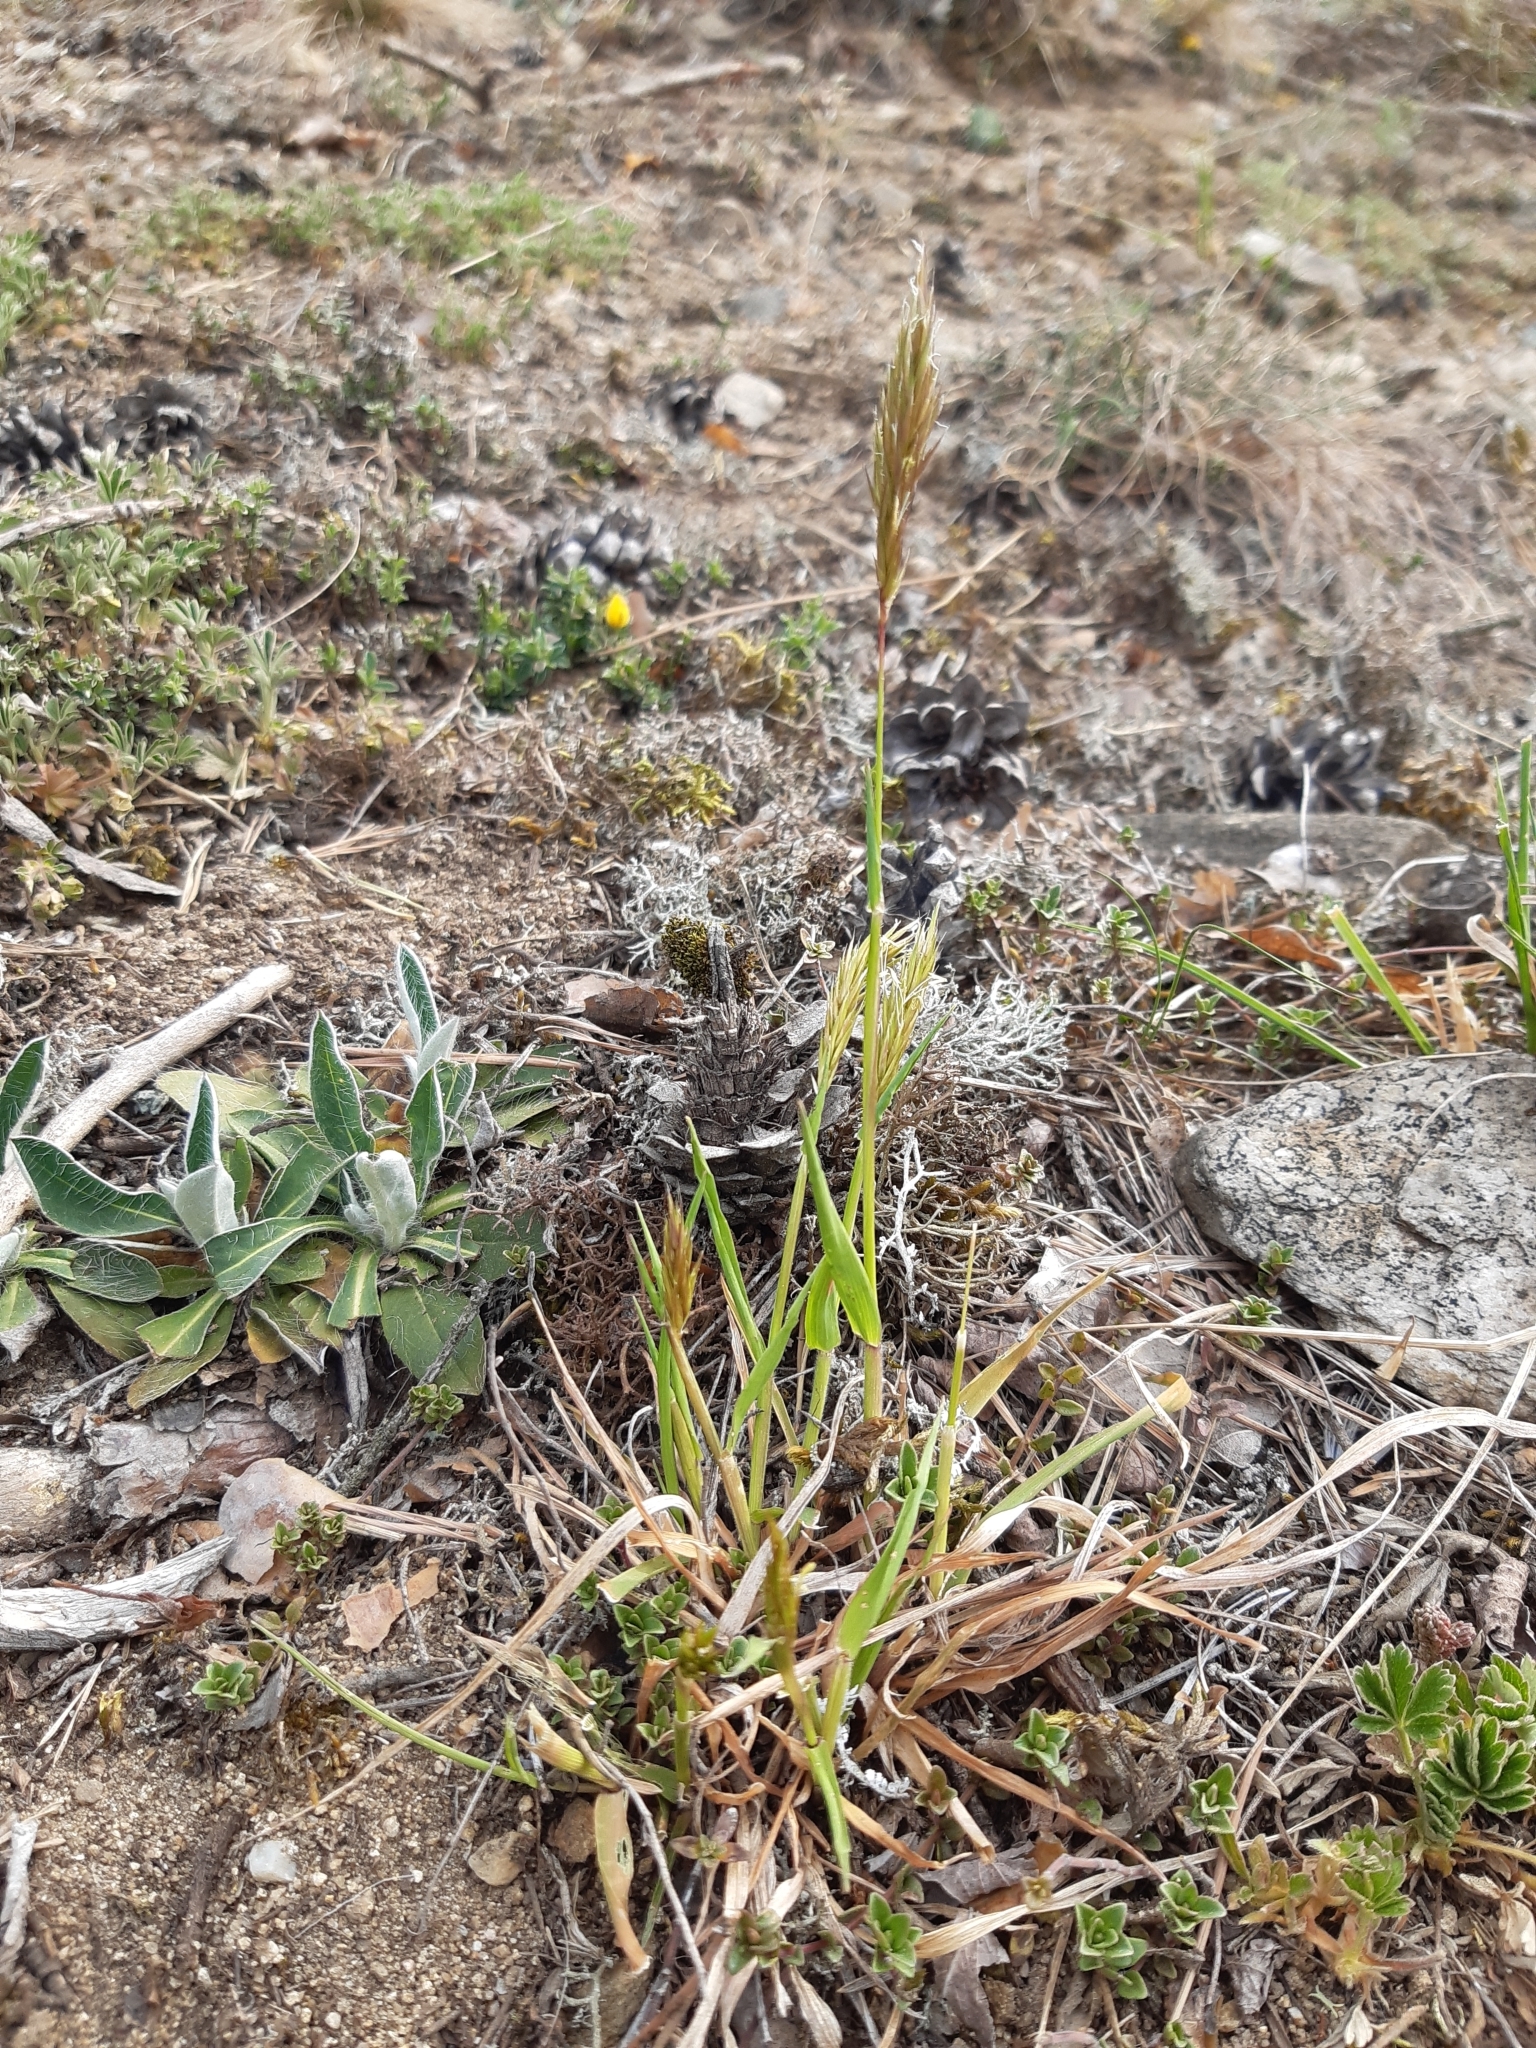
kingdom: Plantae
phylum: Tracheophyta
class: Liliopsida
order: Poales
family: Poaceae
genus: Anthoxanthum
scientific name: Anthoxanthum odoratum
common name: Sweet vernalgrass
